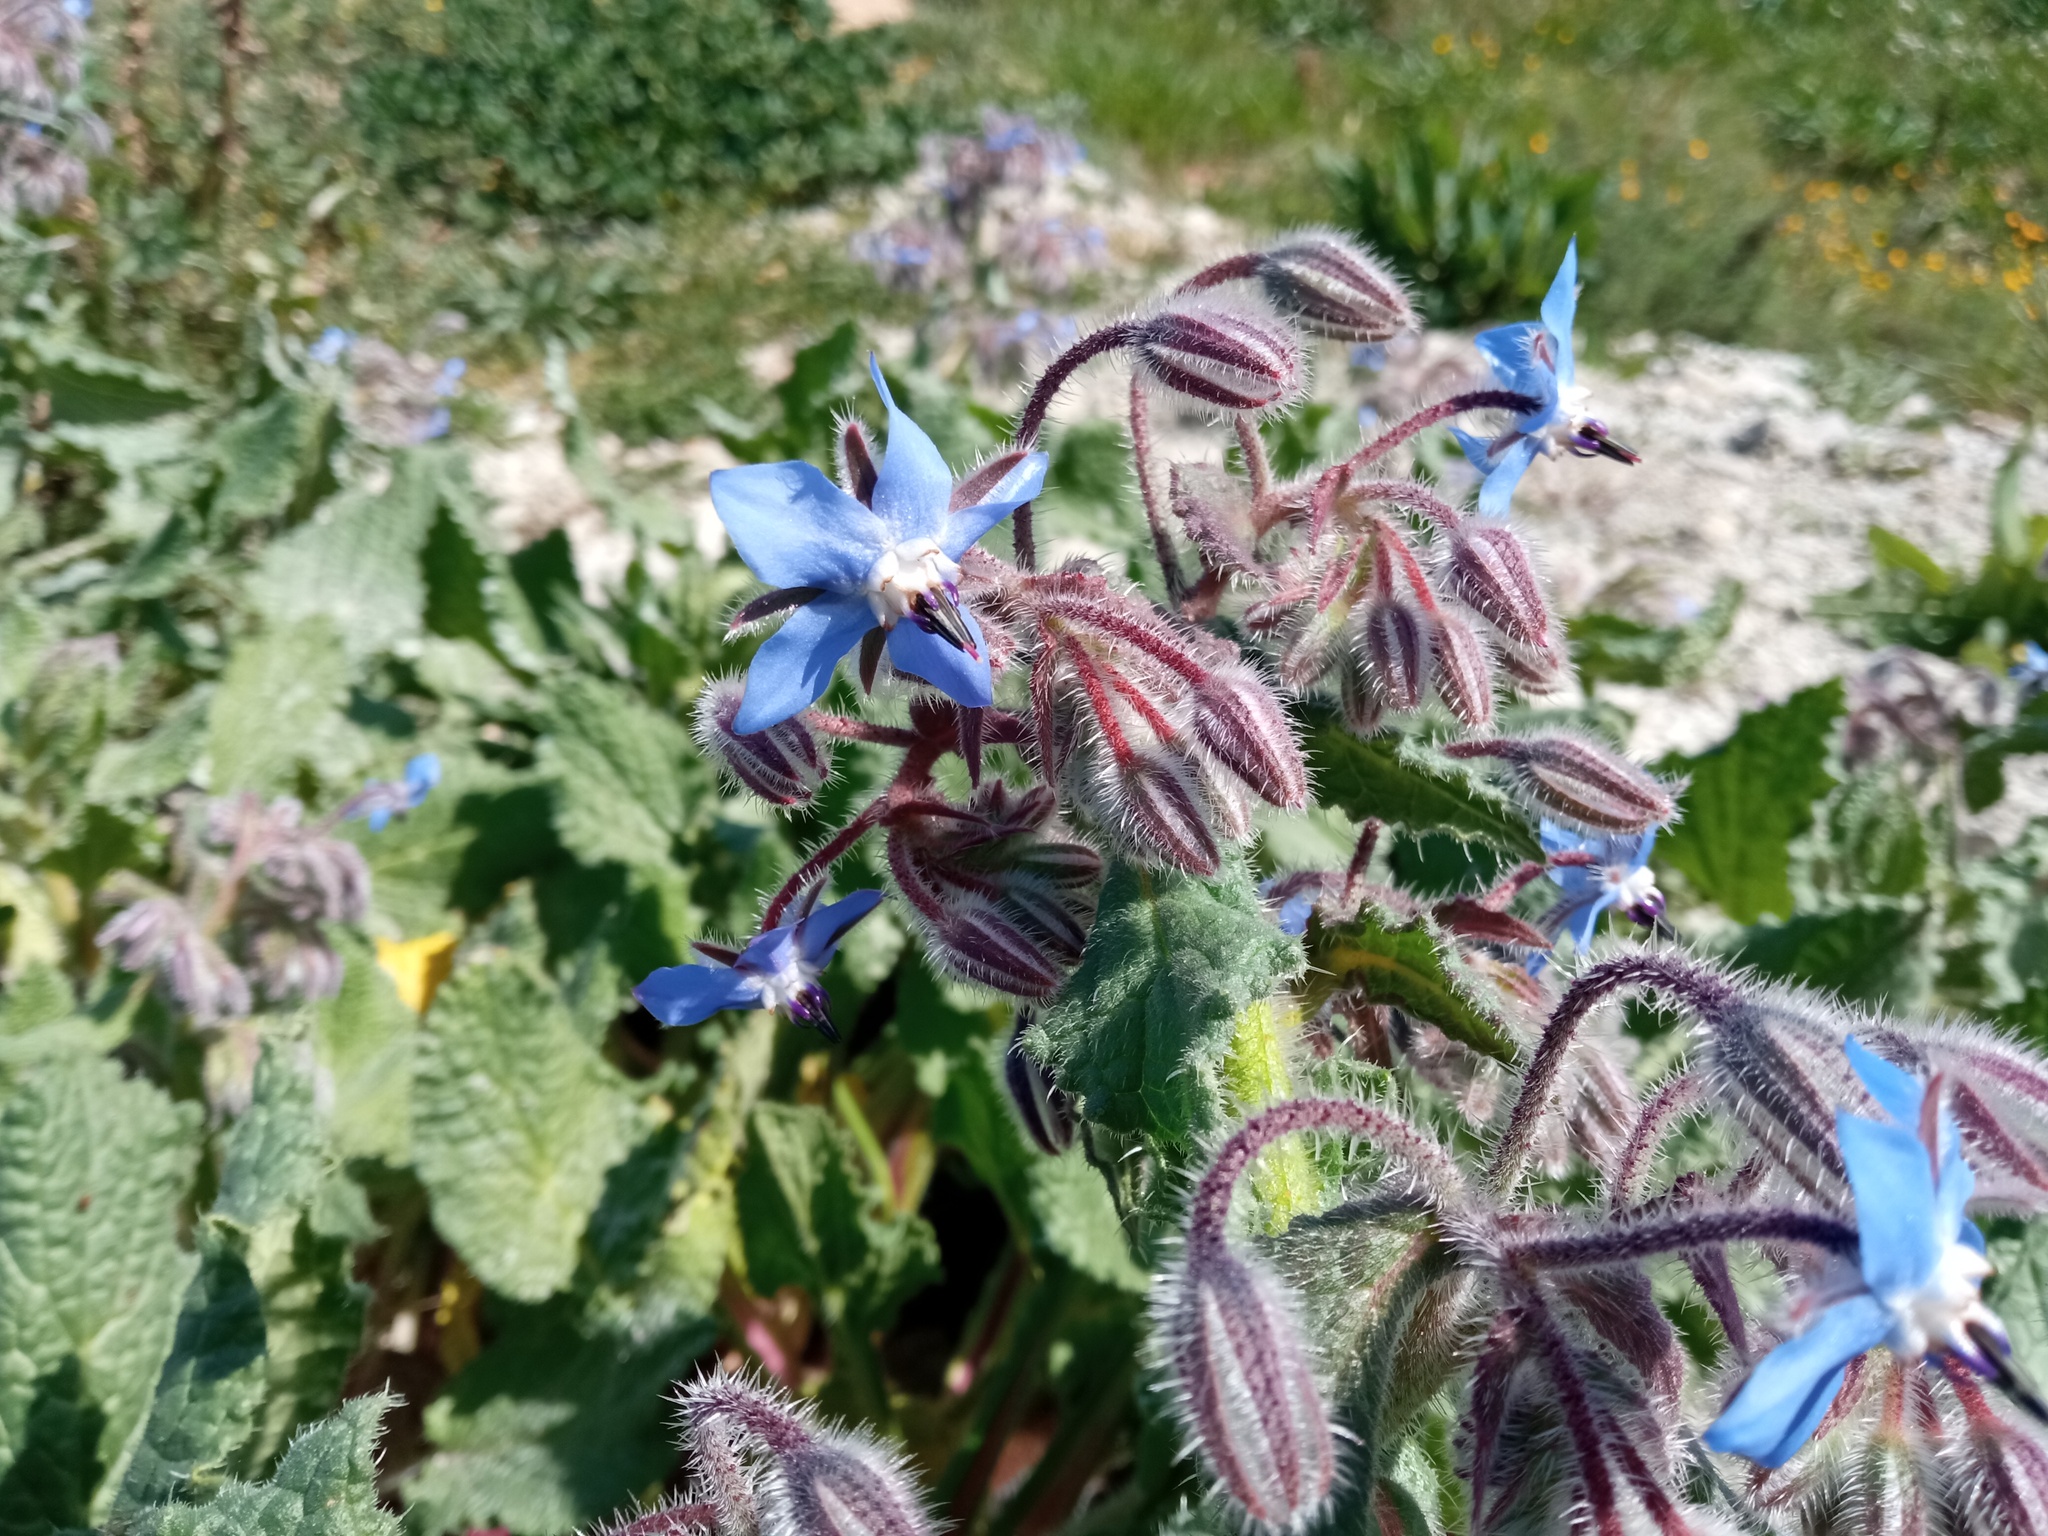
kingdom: Plantae
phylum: Tracheophyta
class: Magnoliopsida
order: Boraginales
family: Boraginaceae
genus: Borago
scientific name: Borago officinalis
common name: Borage
